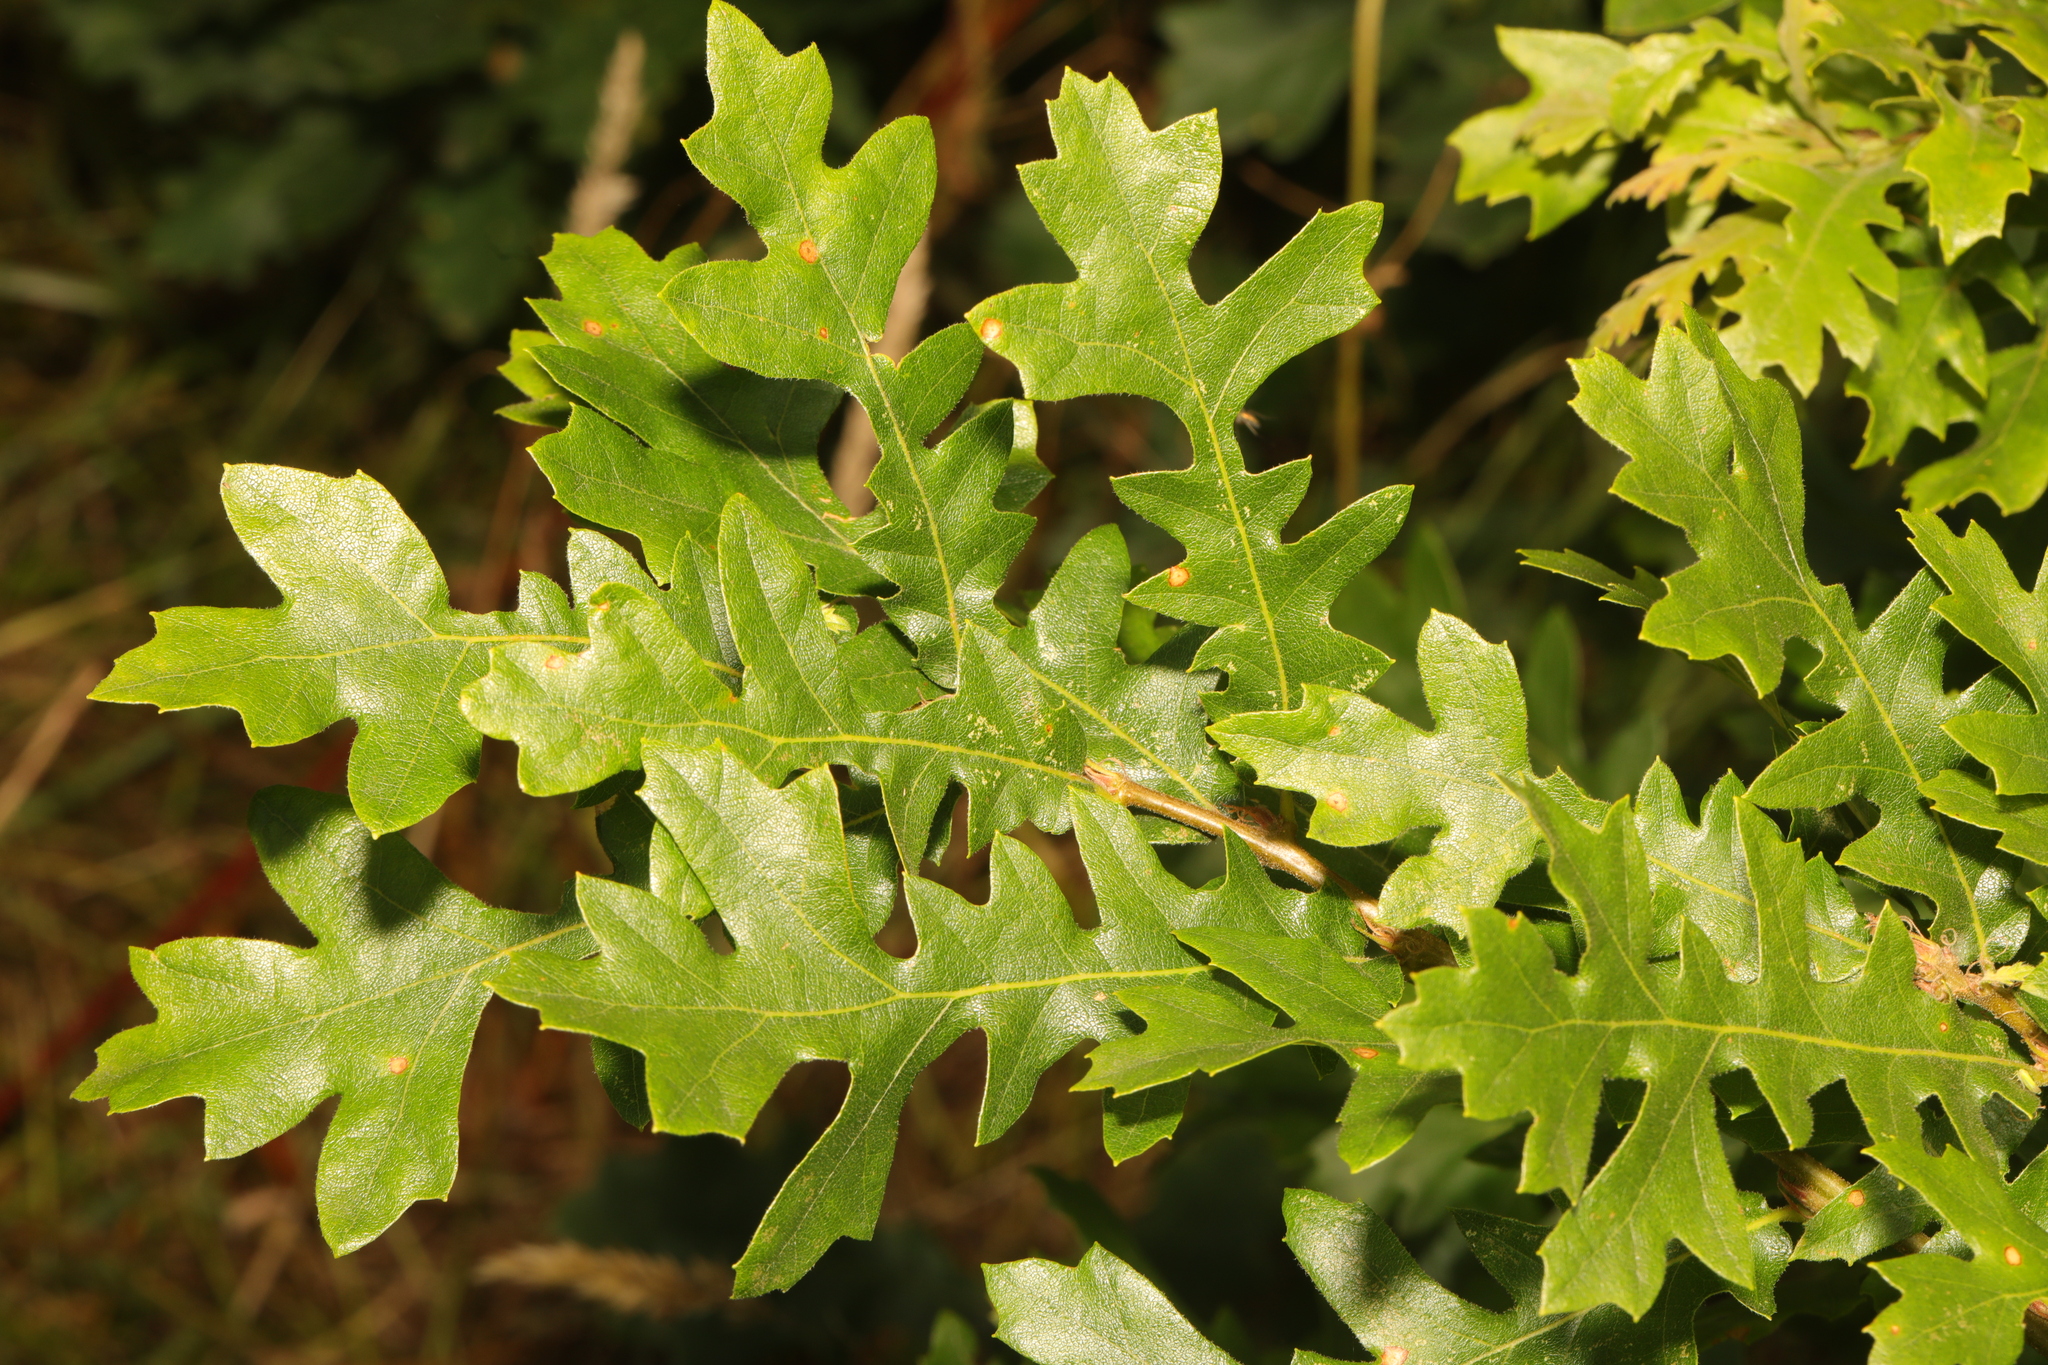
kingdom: Plantae
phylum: Tracheophyta
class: Magnoliopsida
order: Fagales
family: Fagaceae
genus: Quercus
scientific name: Quercus cerris
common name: Turkey oak
